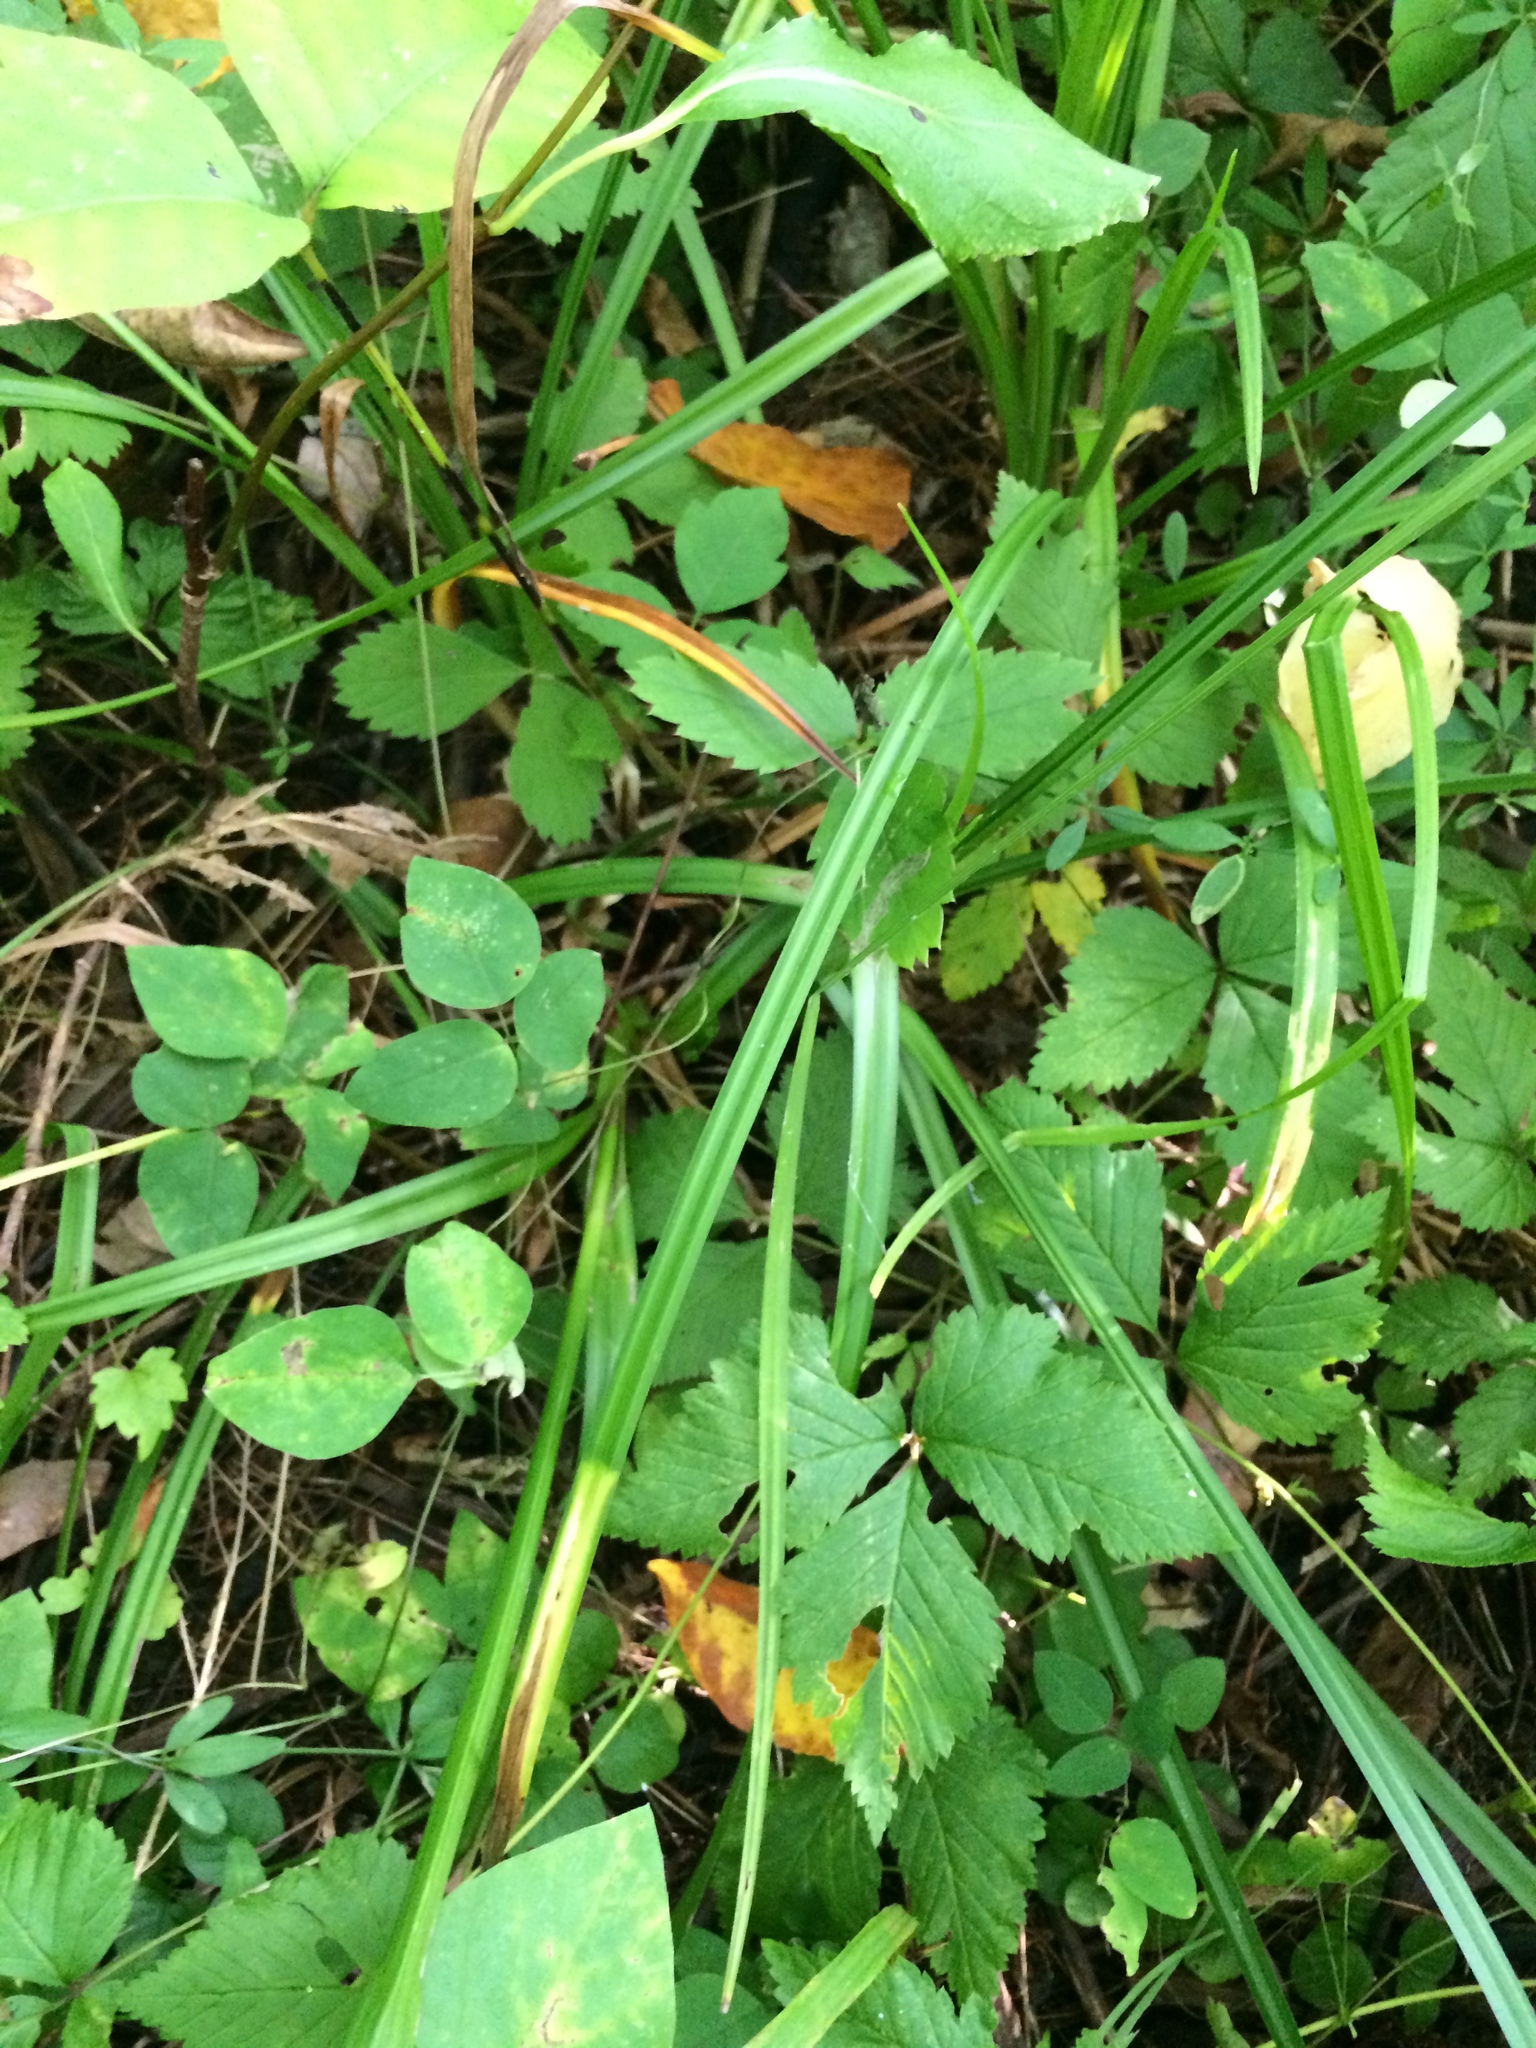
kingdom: Plantae
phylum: Tracheophyta
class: Liliopsida
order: Poales
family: Cyperaceae
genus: Carex
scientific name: Carex grayi
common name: Asa gray's sedge
